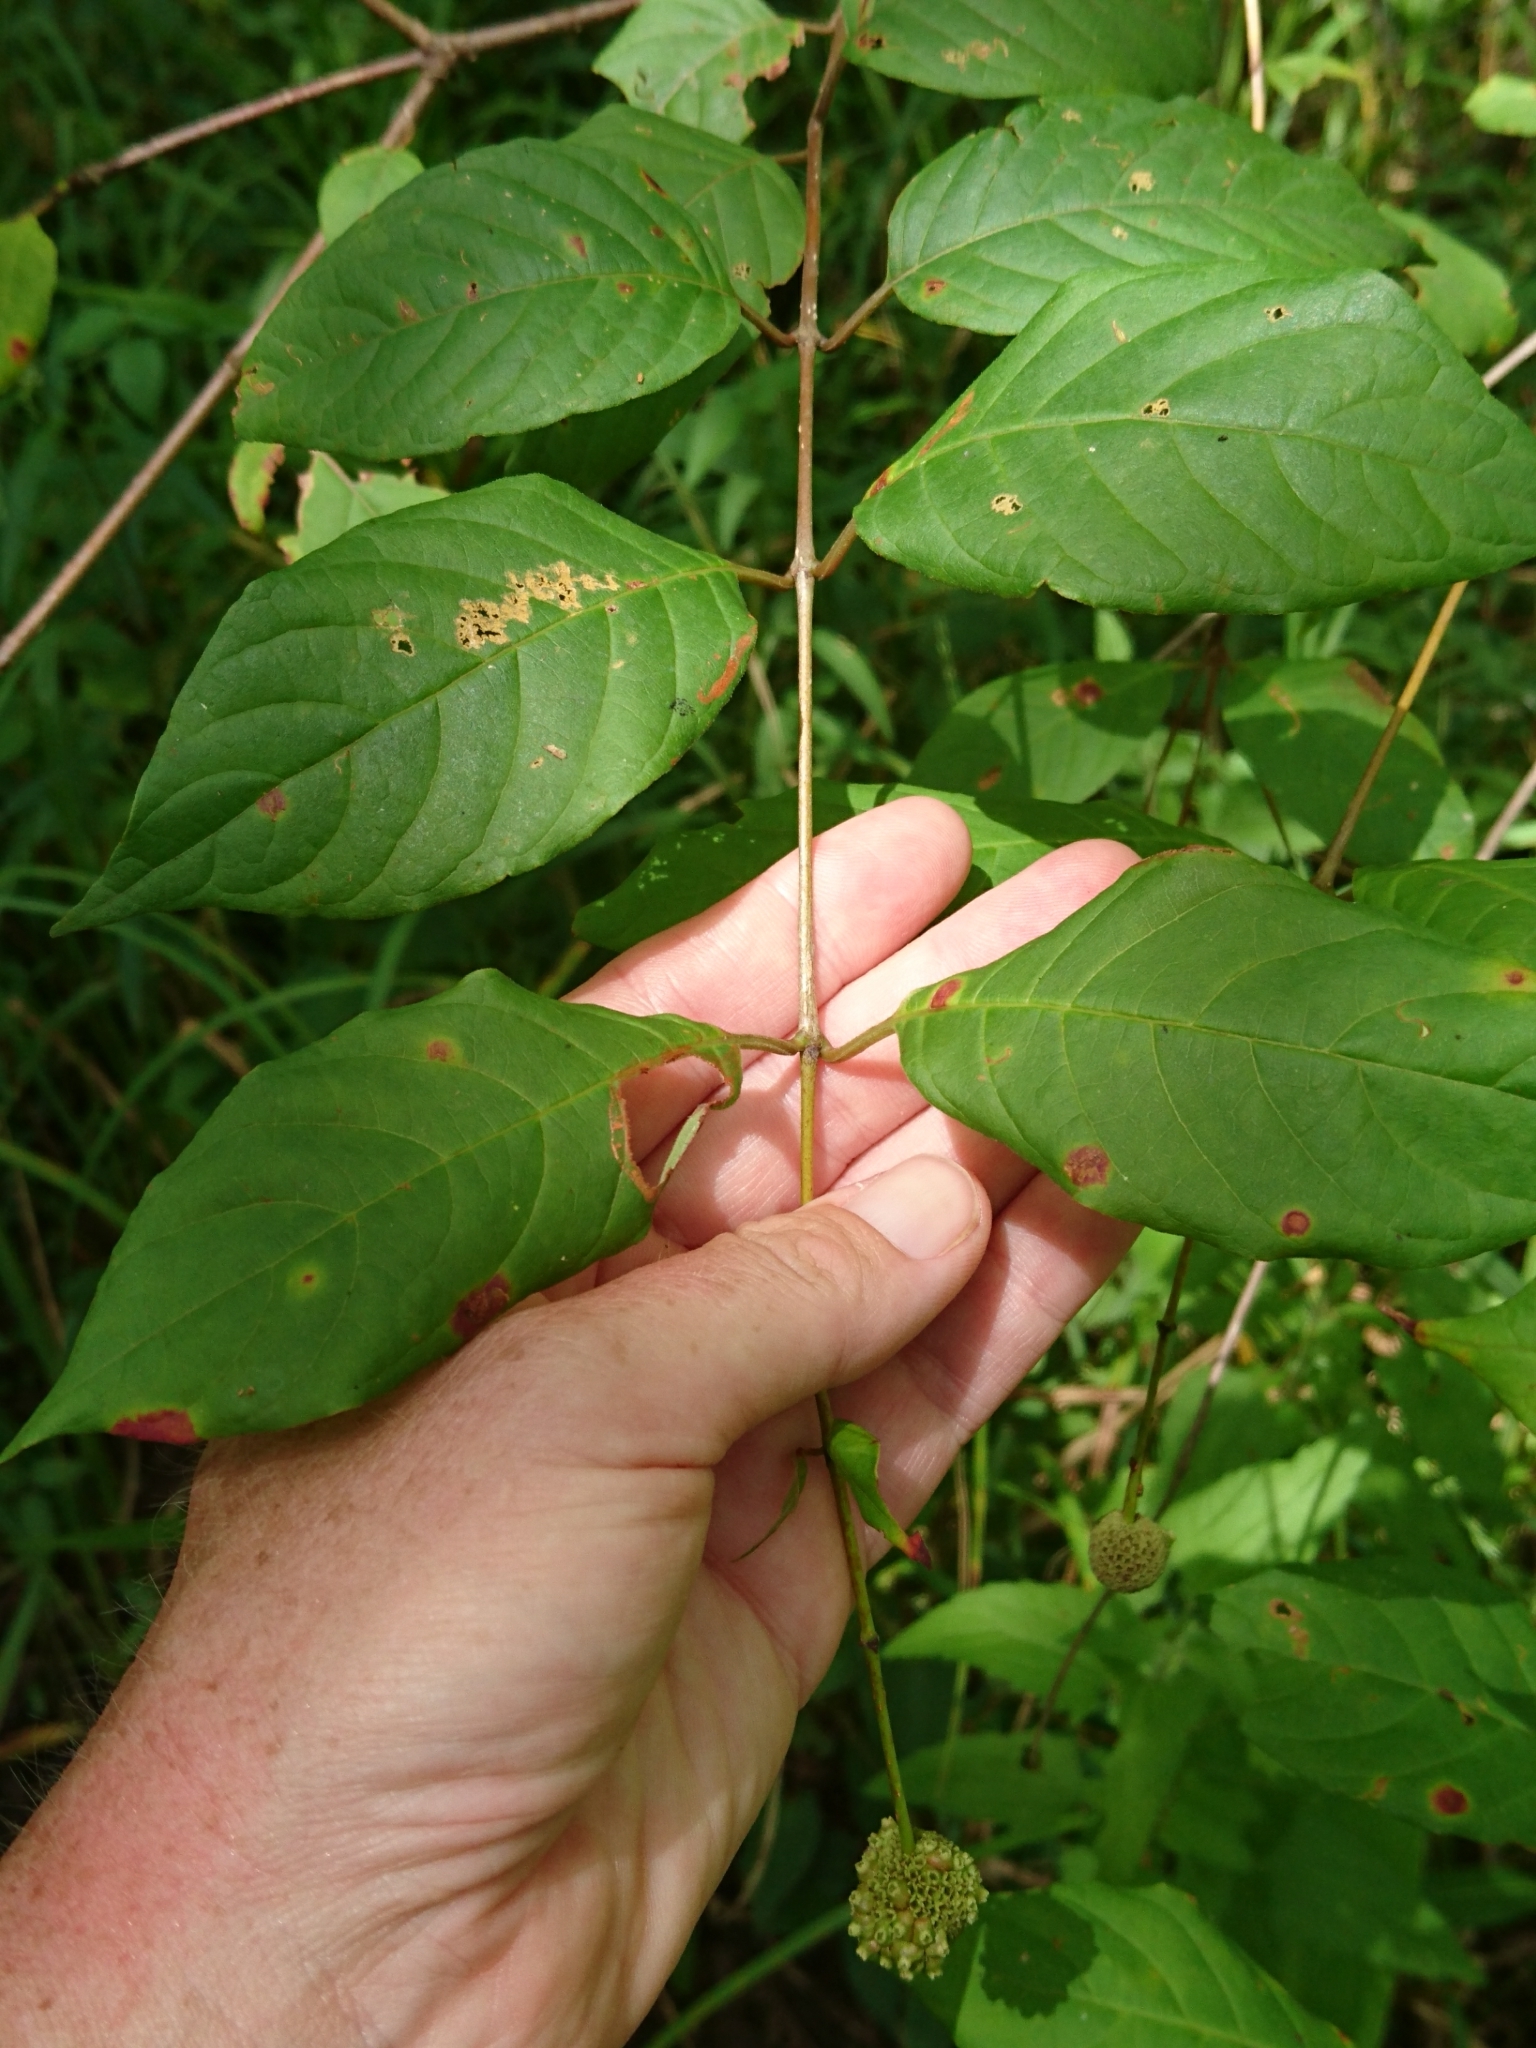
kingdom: Plantae
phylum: Tracheophyta
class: Magnoliopsida
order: Gentianales
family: Rubiaceae
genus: Cephalanthus
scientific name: Cephalanthus occidentalis
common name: Button-willow
